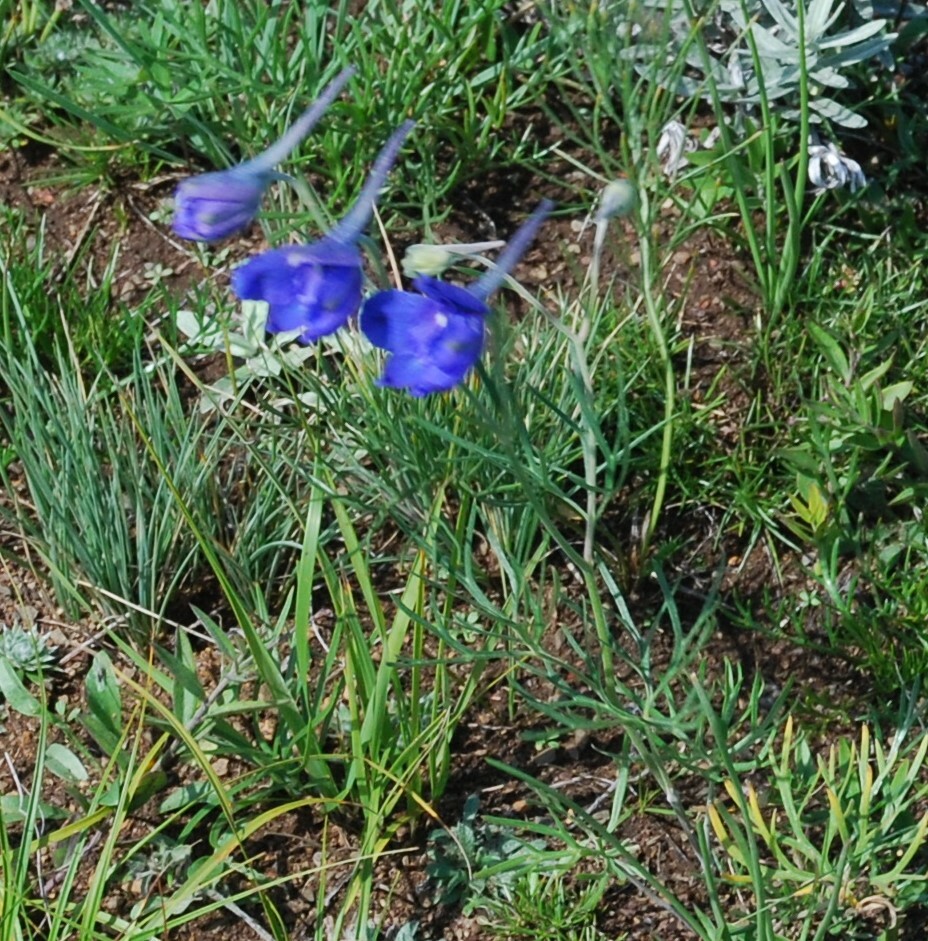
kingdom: Plantae
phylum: Tracheophyta
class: Magnoliopsida
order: Ranunculales
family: Ranunculaceae
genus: Delphinium
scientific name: Delphinium grandiflorum
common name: Siberian larkspur
